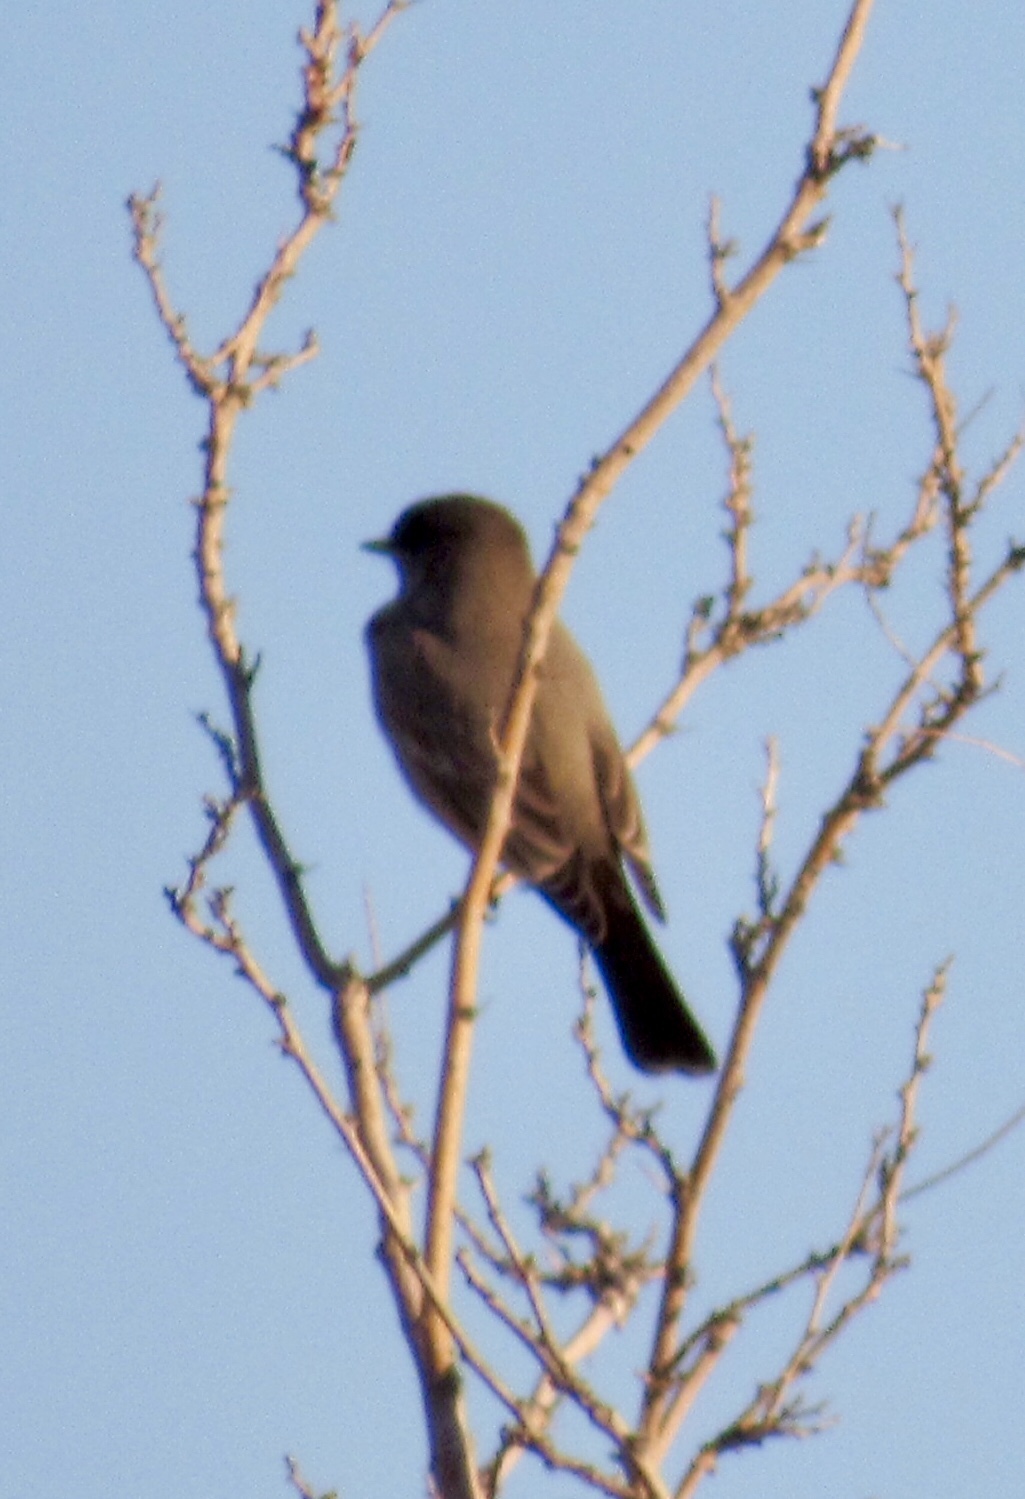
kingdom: Animalia
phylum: Chordata
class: Aves
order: Passeriformes
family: Tyrannidae
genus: Sayornis
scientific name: Sayornis saya
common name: Say's phoebe
